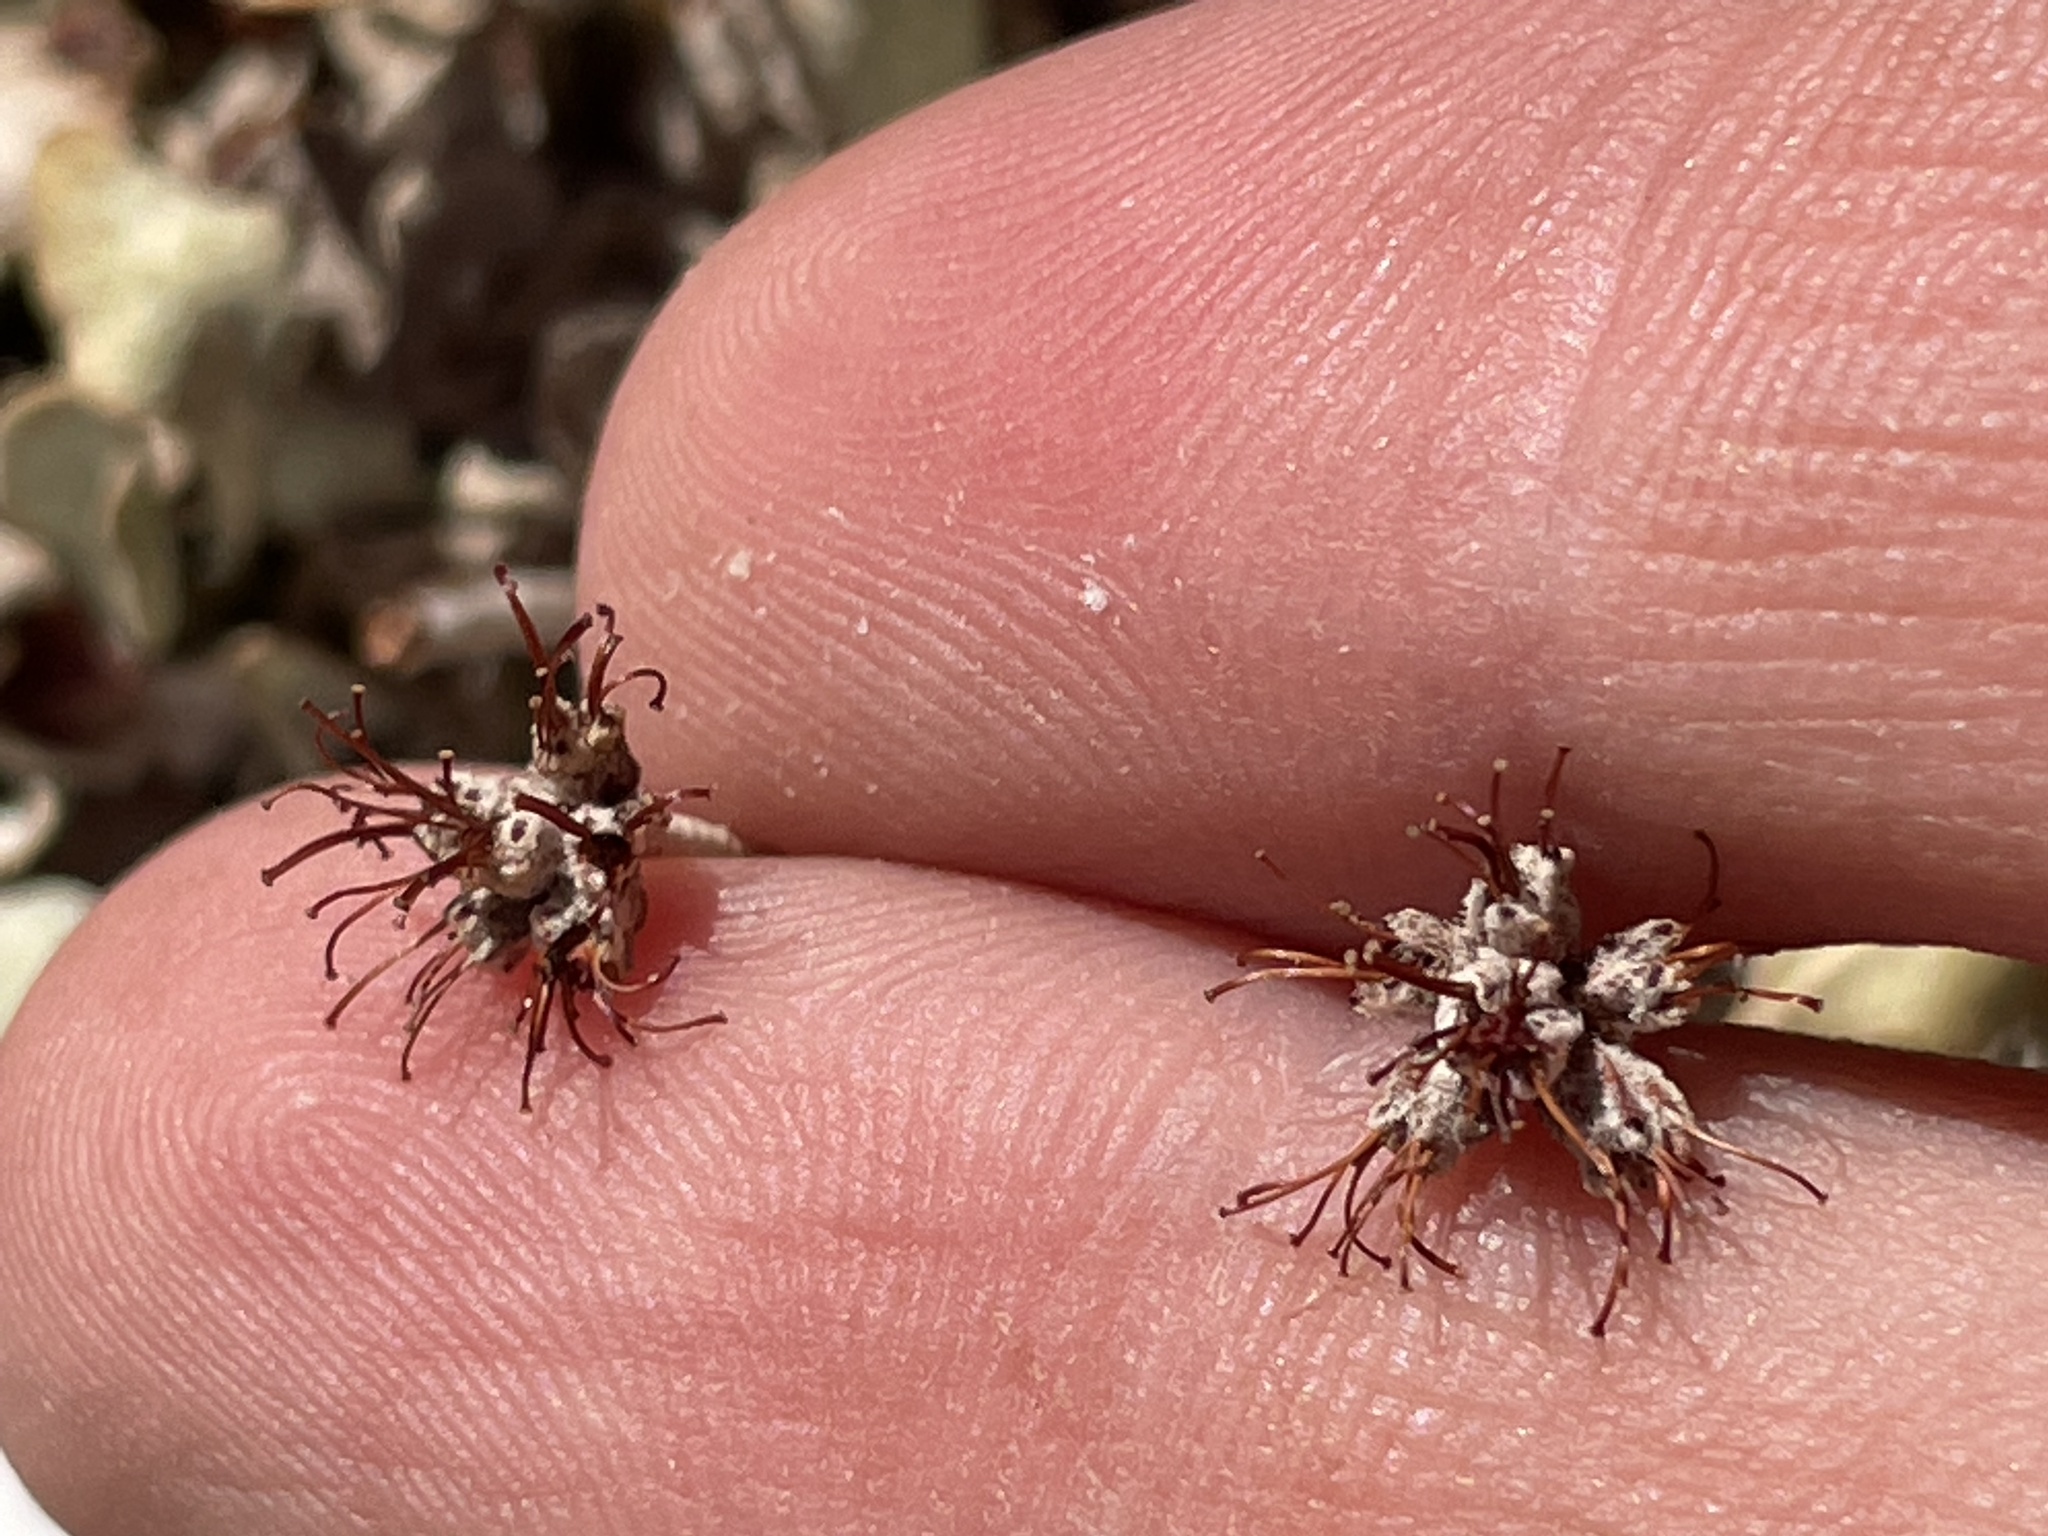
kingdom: Plantae
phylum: Tracheophyta
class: Magnoliopsida
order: Caryophyllales
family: Polygonaceae
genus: Eriogonum
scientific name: Eriogonum ovalifolium
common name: Cushion buckwheat
